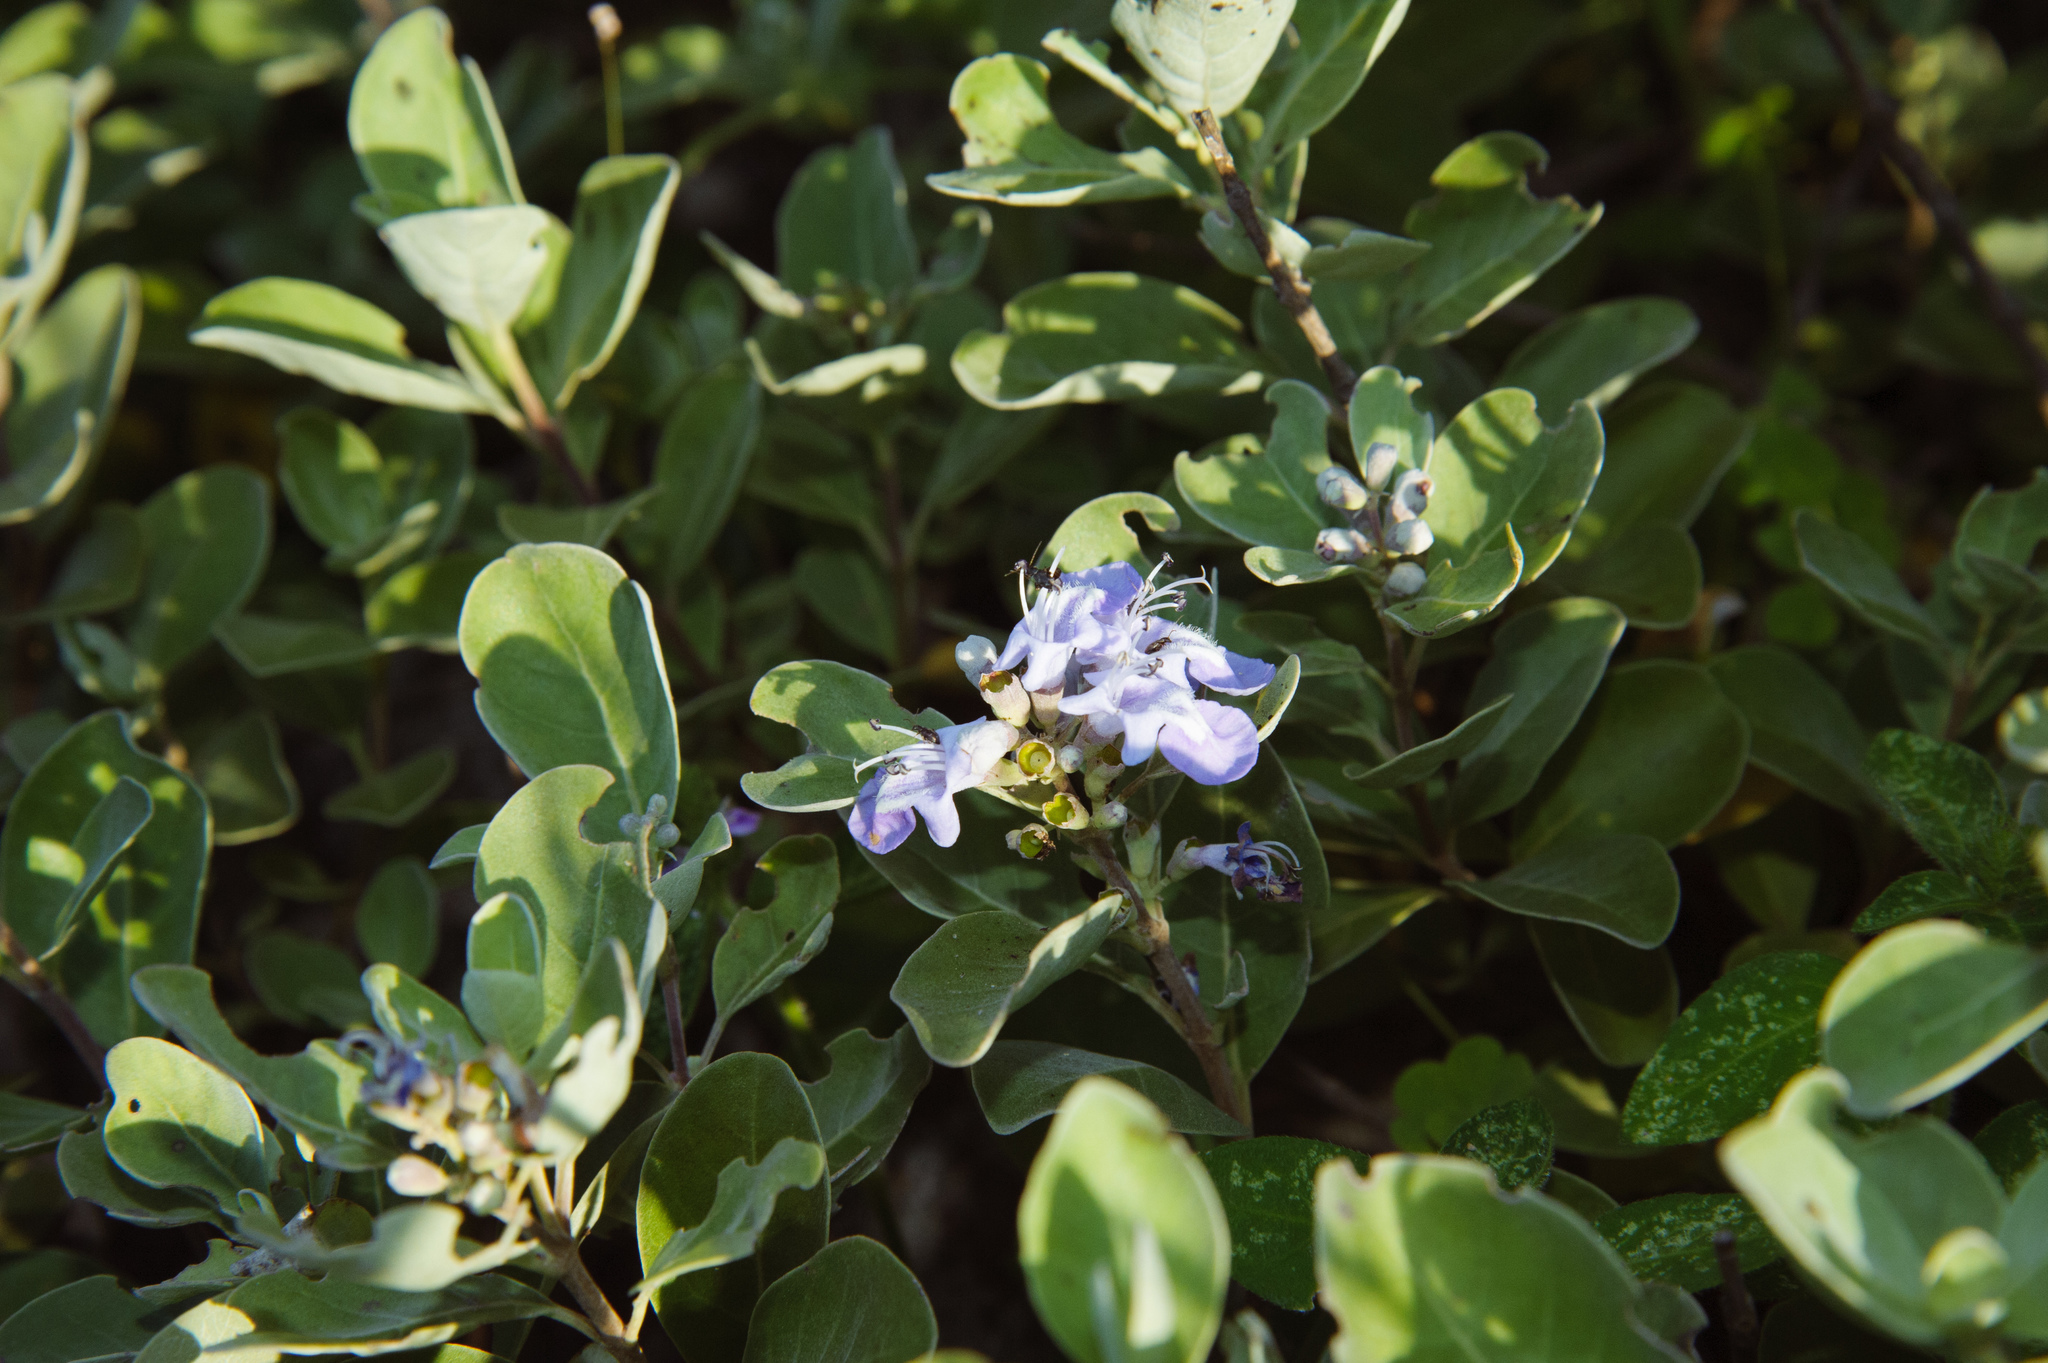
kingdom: Plantae
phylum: Tracheophyta
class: Magnoliopsida
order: Lamiales
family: Lamiaceae
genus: Vitex
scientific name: Vitex rotundifolia
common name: Beach vitex
